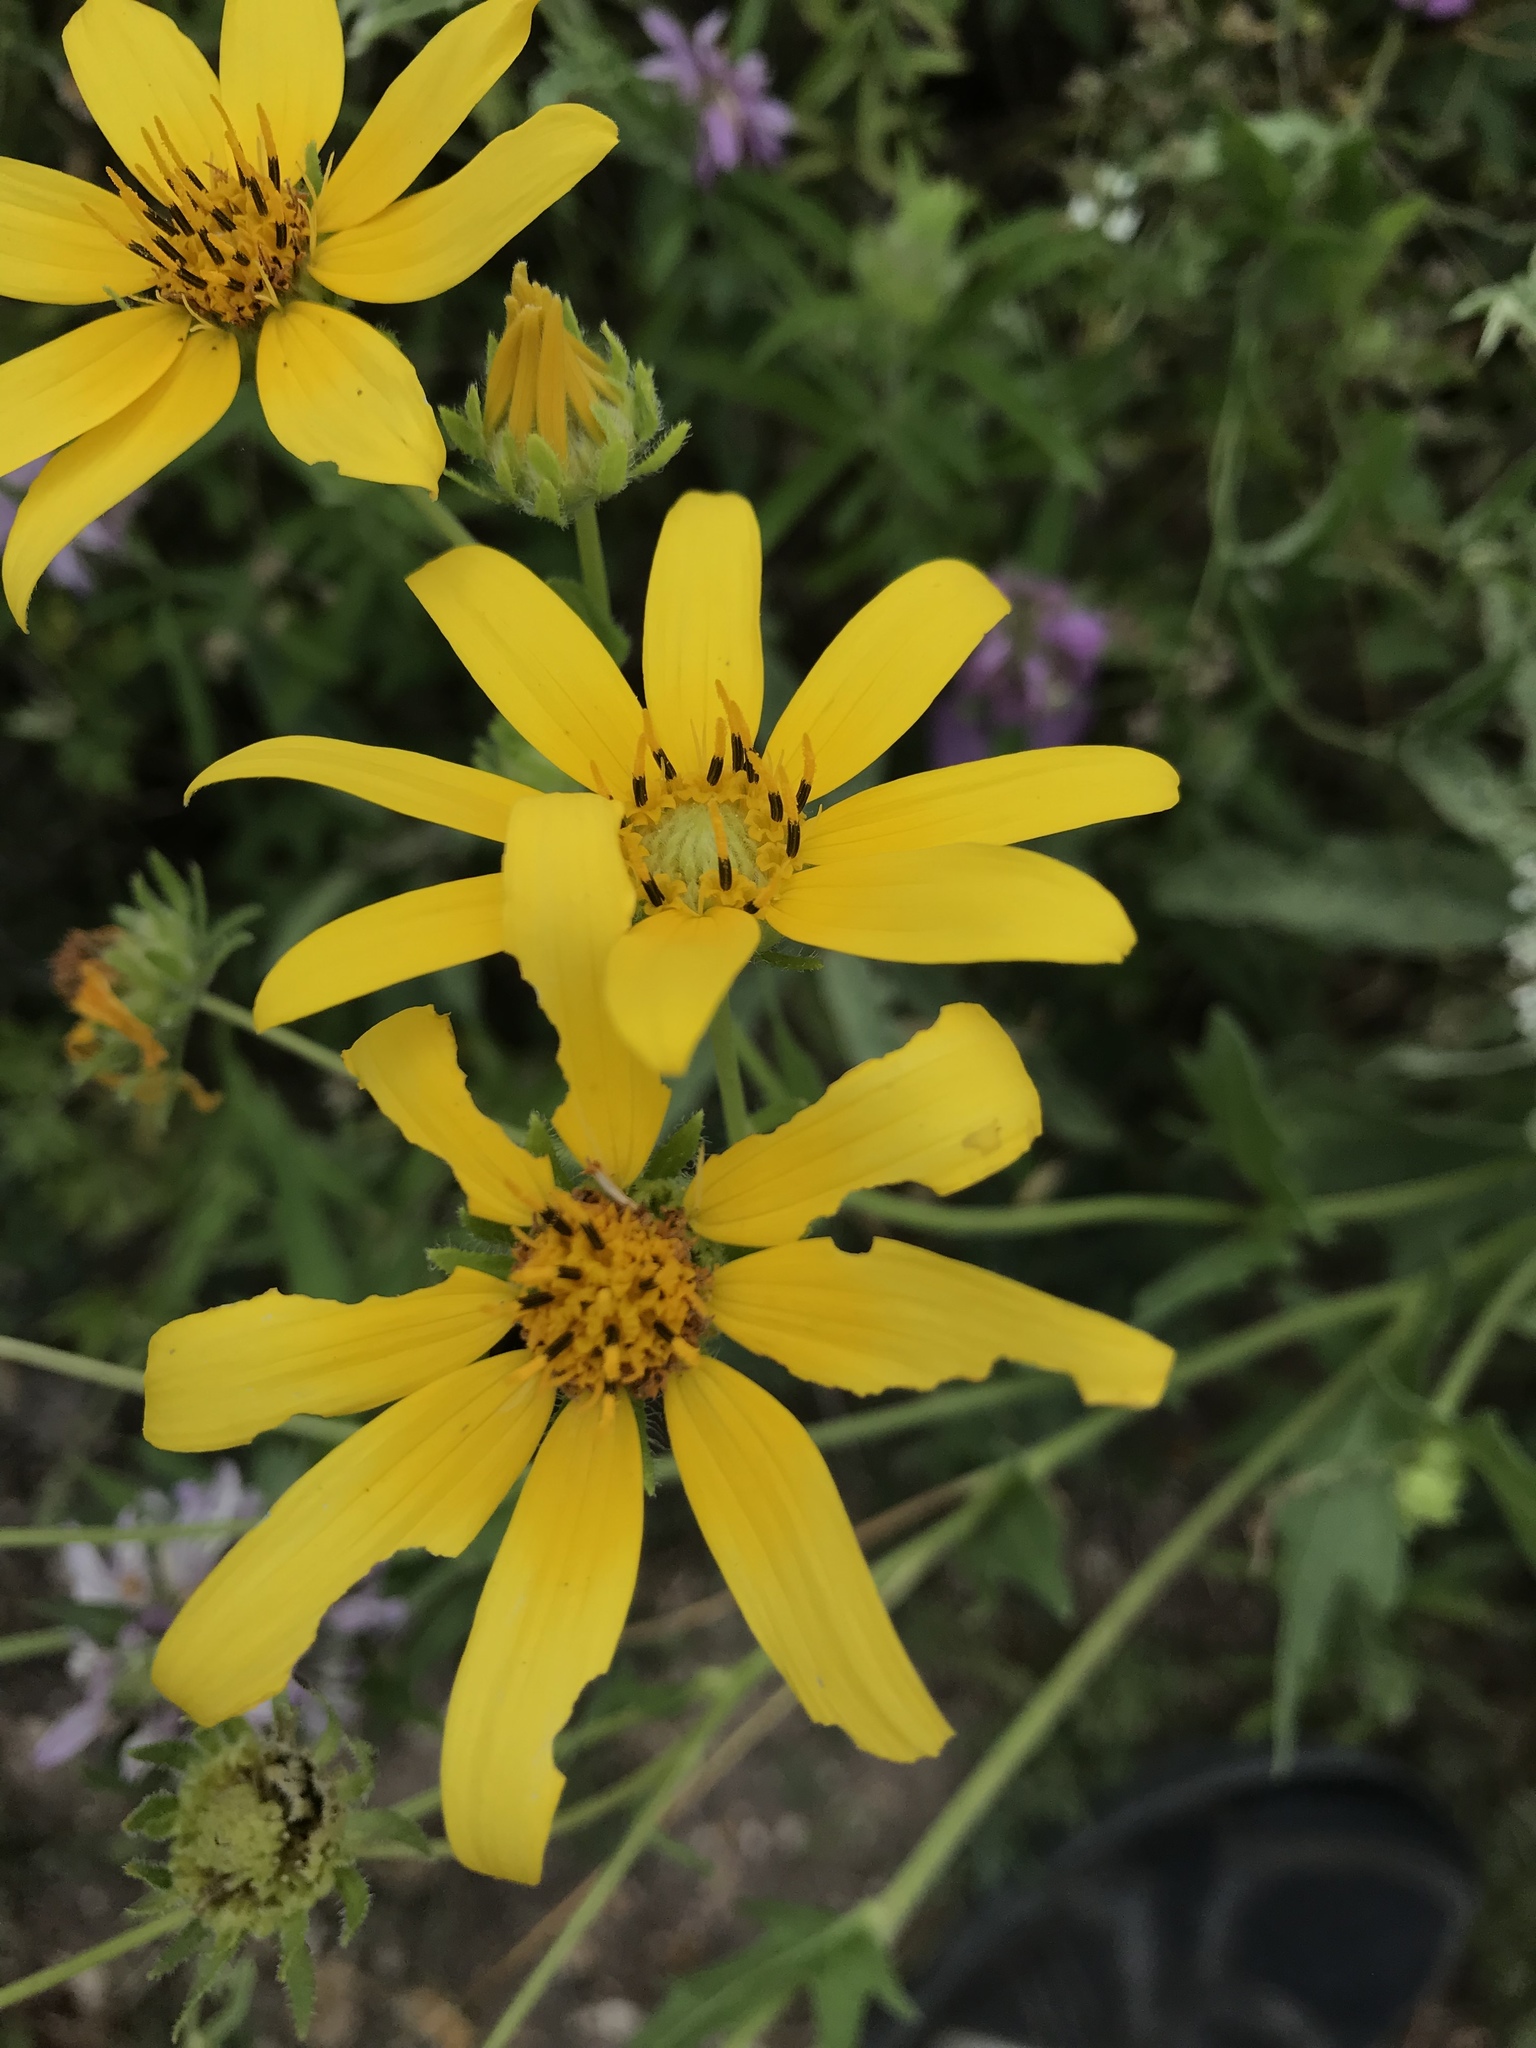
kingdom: Plantae
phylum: Tracheophyta
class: Magnoliopsida
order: Asterales
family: Asteraceae
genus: Engelmannia
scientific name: Engelmannia peristenia
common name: Engelmann's daisy
